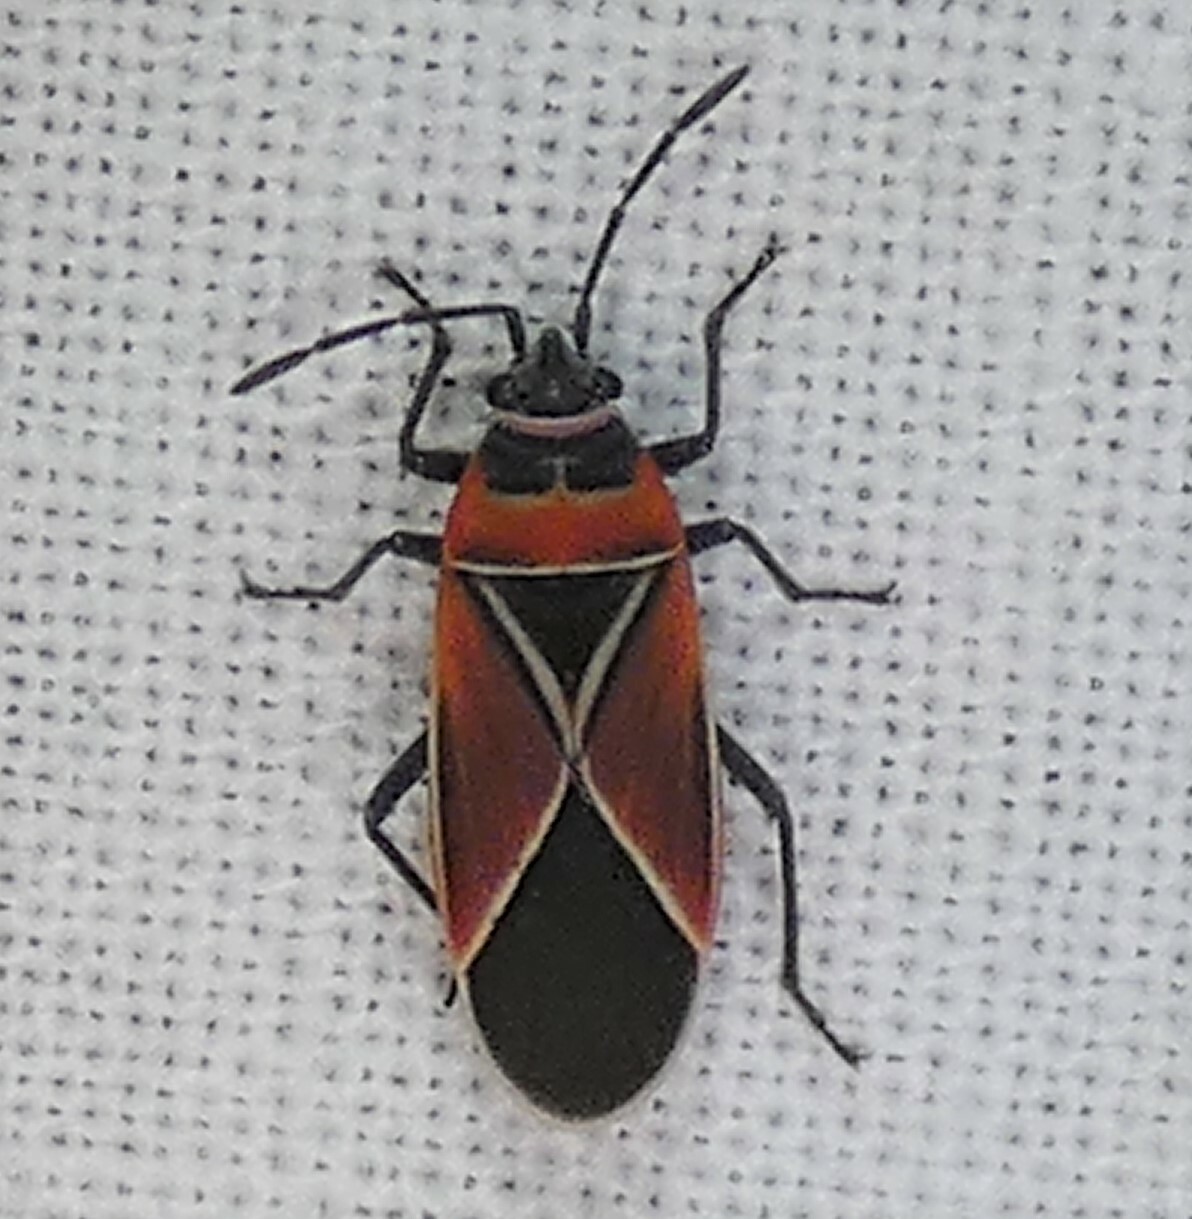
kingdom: Animalia
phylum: Arthropoda
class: Insecta
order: Hemiptera
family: Lygaeidae
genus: Neacoryphus
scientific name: Neacoryphus bicrucis
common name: Lygaeid bug
